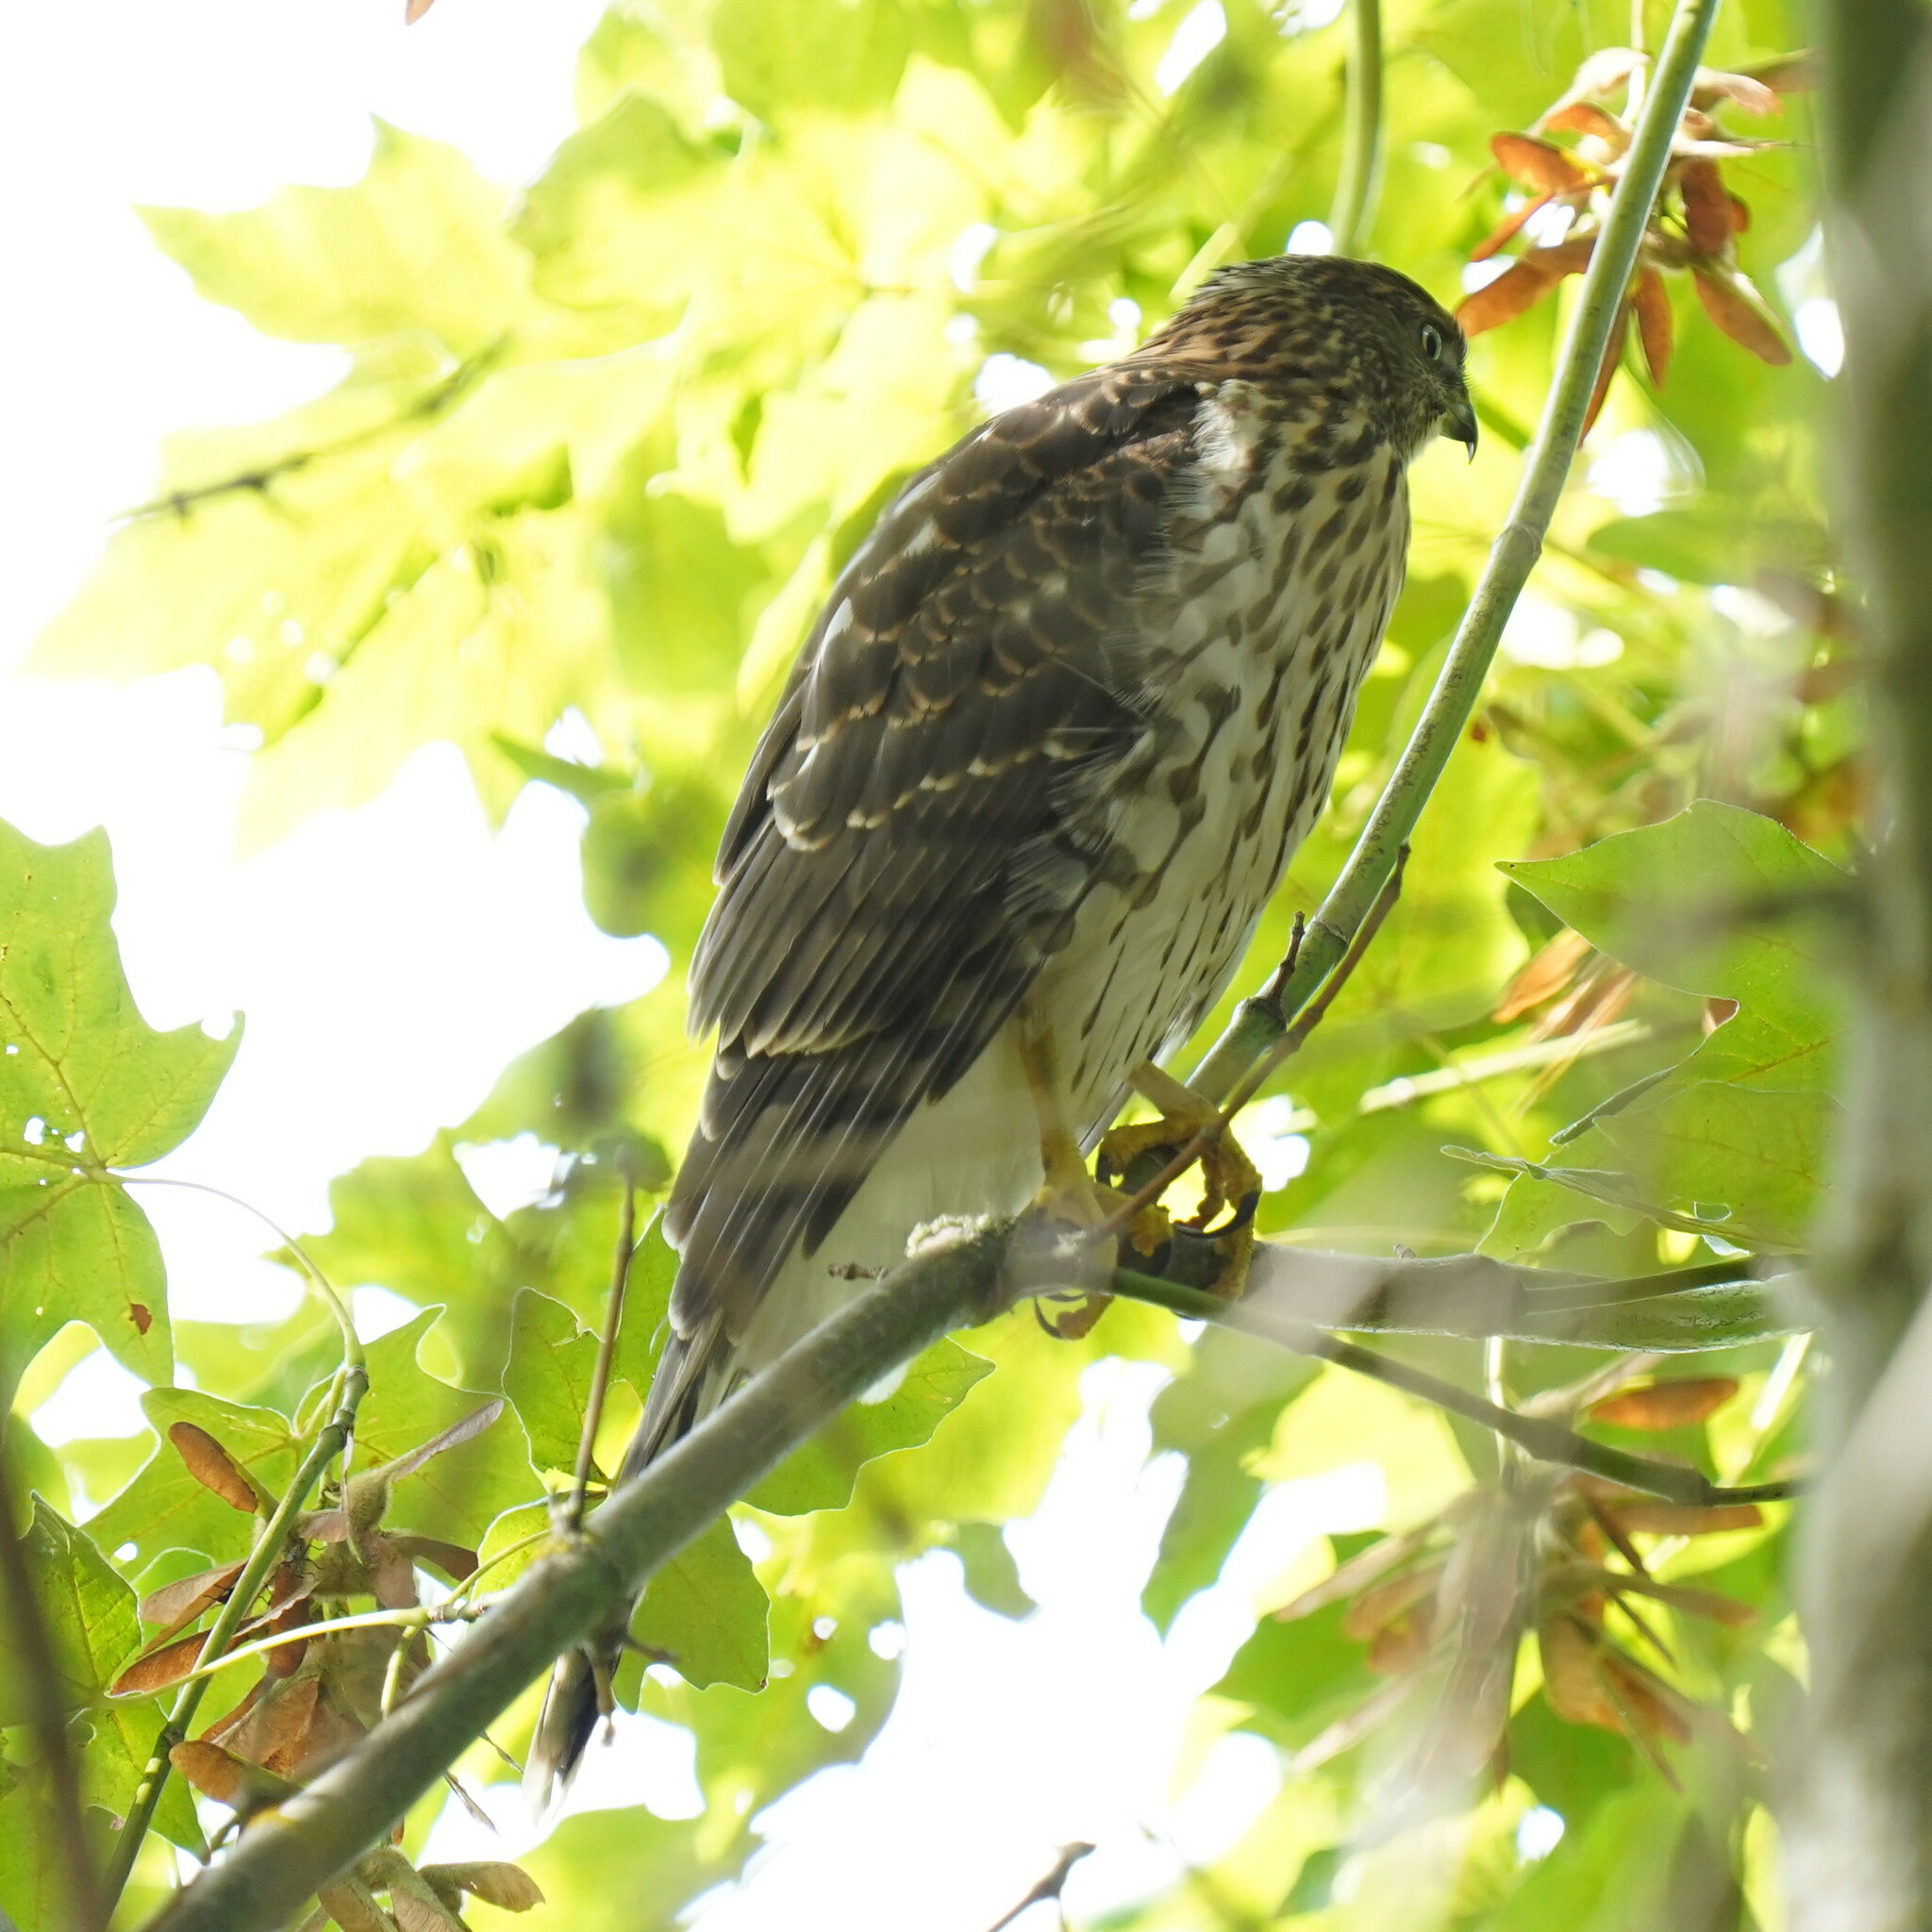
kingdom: Animalia
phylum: Chordata
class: Aves
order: Accipitriformes
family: Accipitridae
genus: Accipiter
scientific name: Accipiter cooperii
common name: Cooper's hawk
